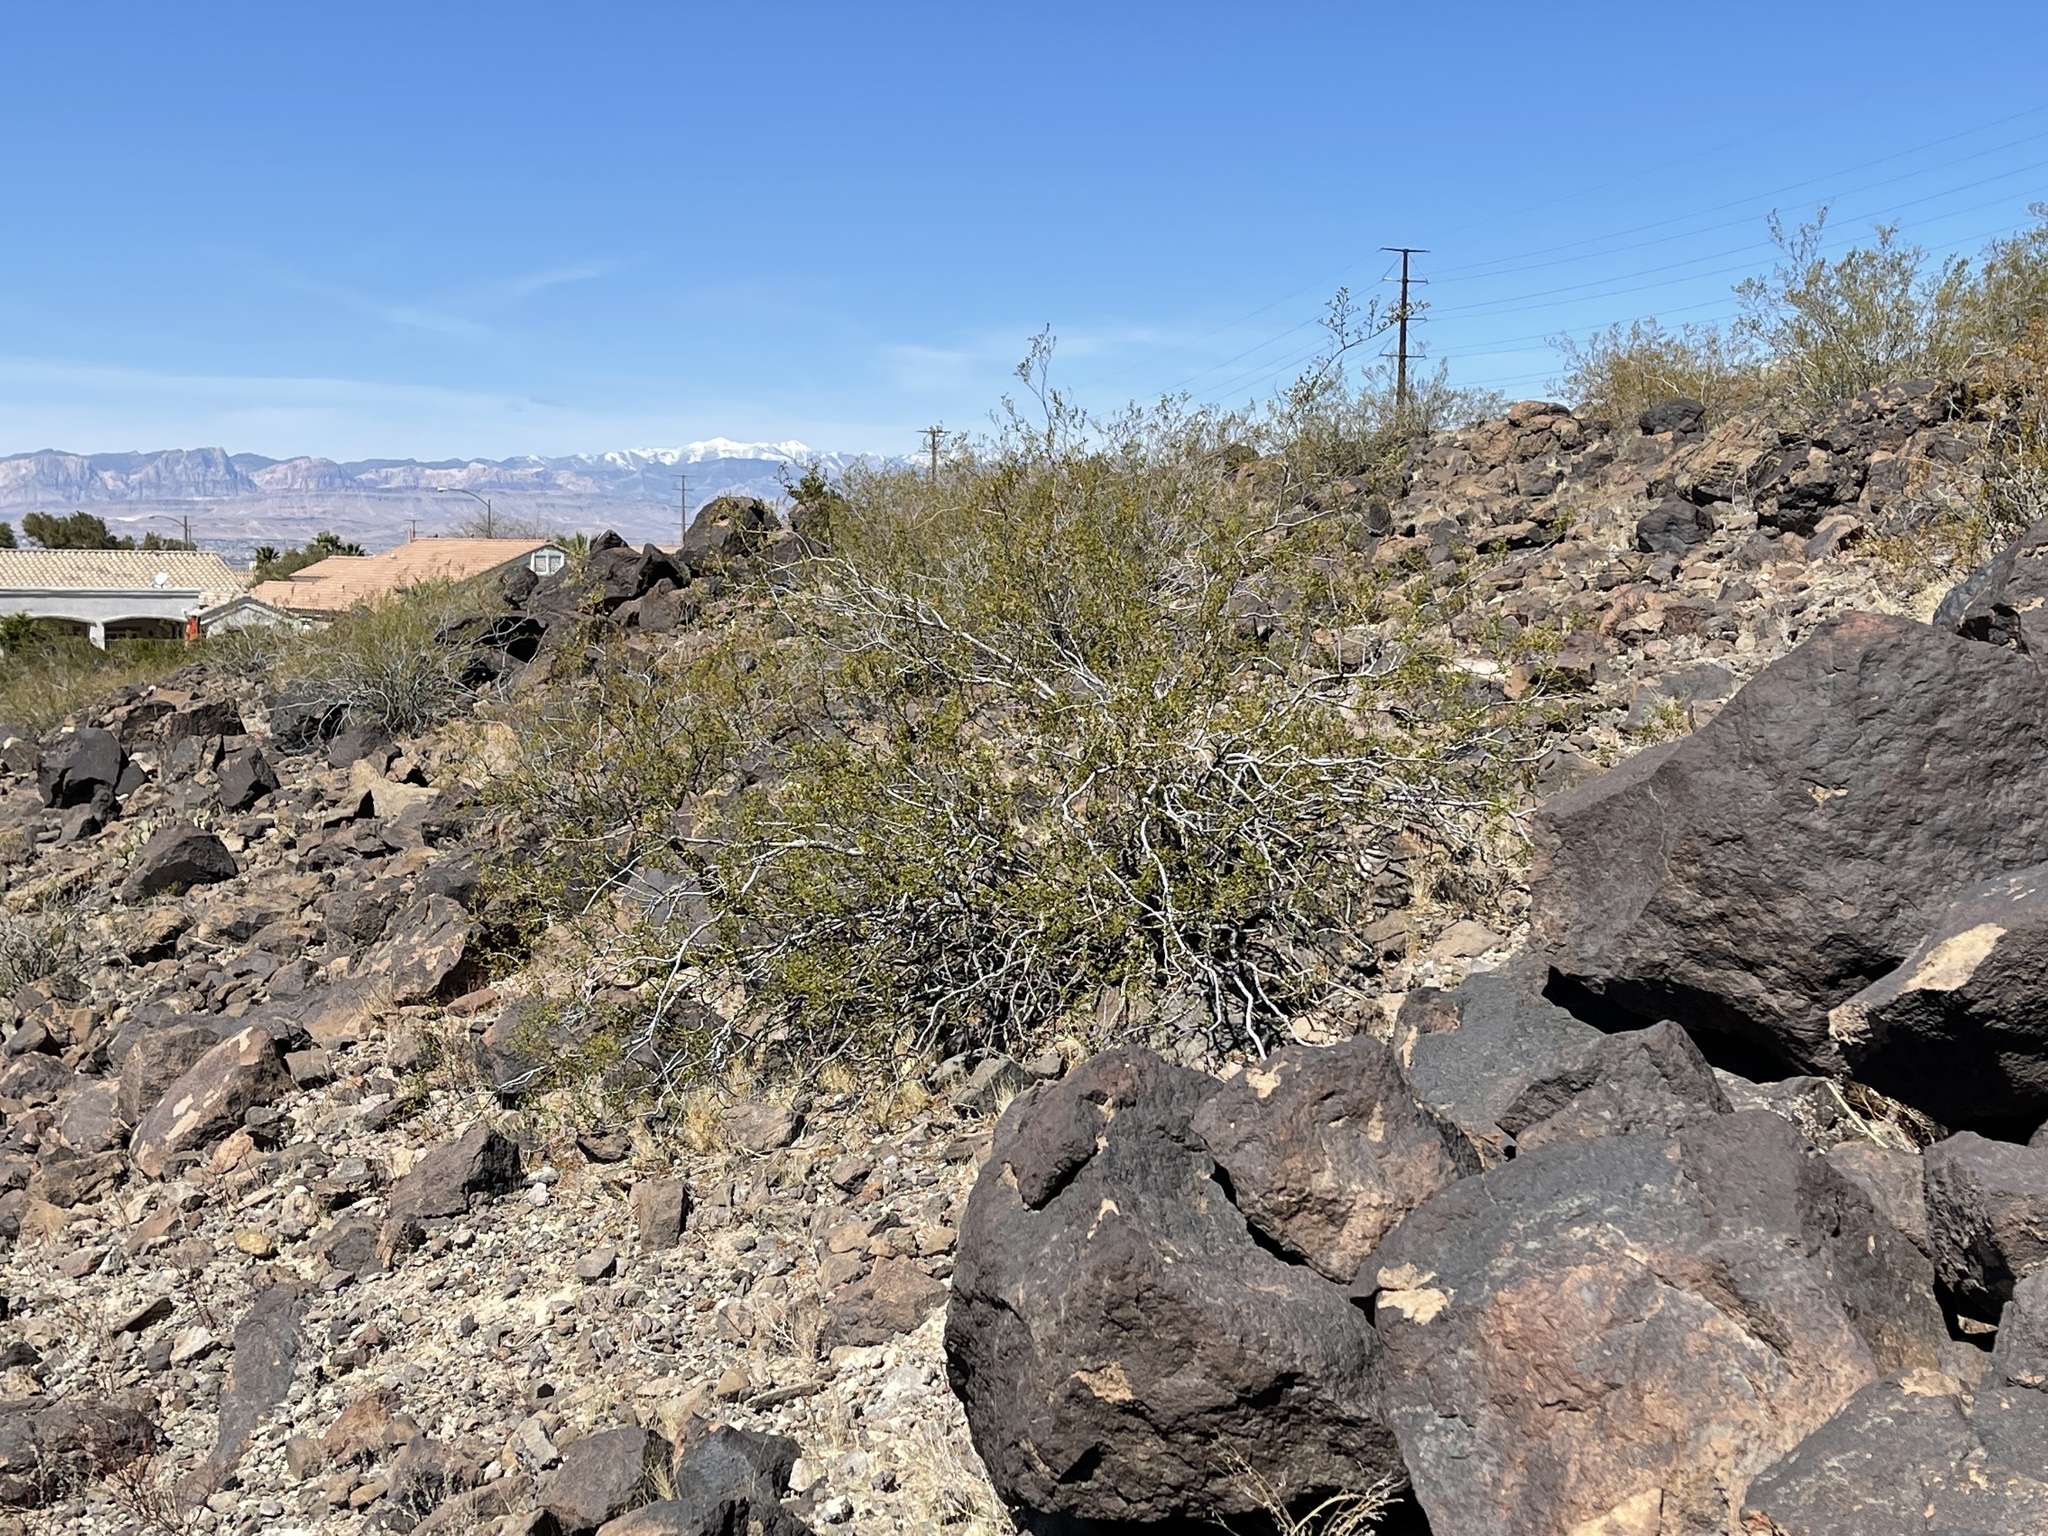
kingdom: Plantae
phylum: Tracheophyta
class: Magnoliopsida
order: Zygophyllales
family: Zygophyllaceae
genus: Larrea
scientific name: Larrea tridentata
